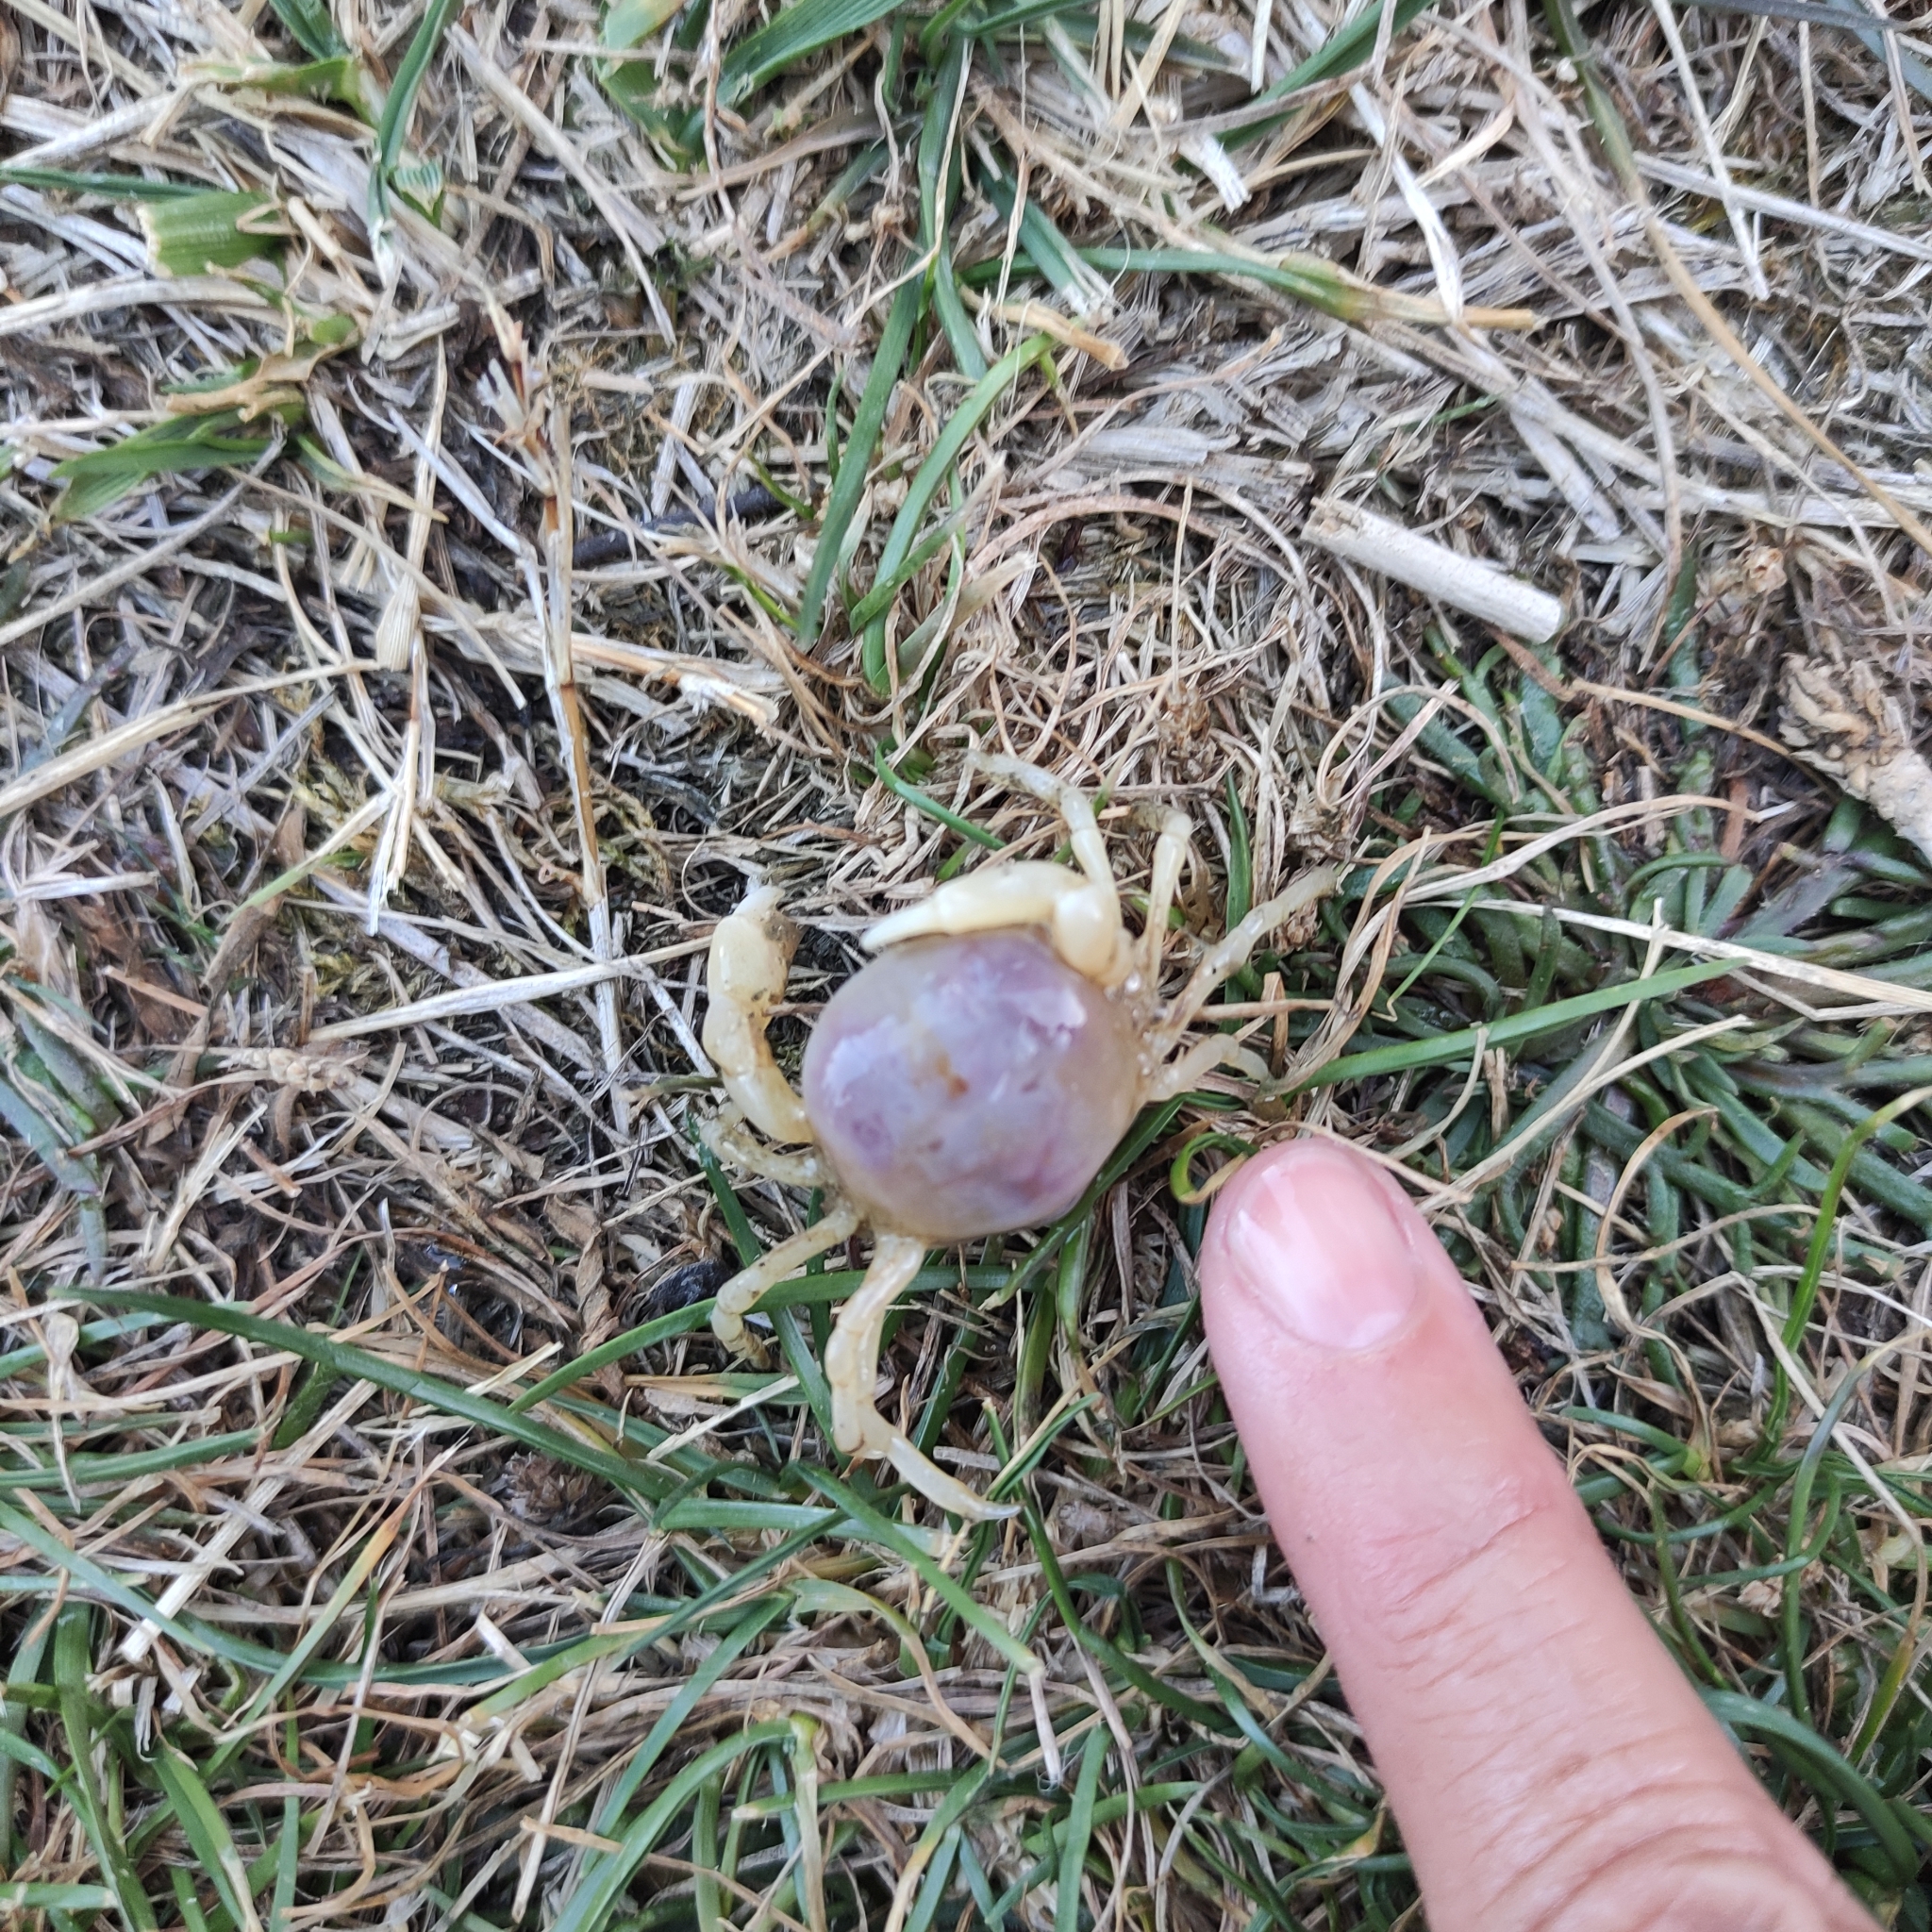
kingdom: Animalia
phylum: Arthropoda
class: Malacostraca
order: Decapoda
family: Pinnotheridae
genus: Nepinnotheres
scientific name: Nepinnotheres atrinicola
